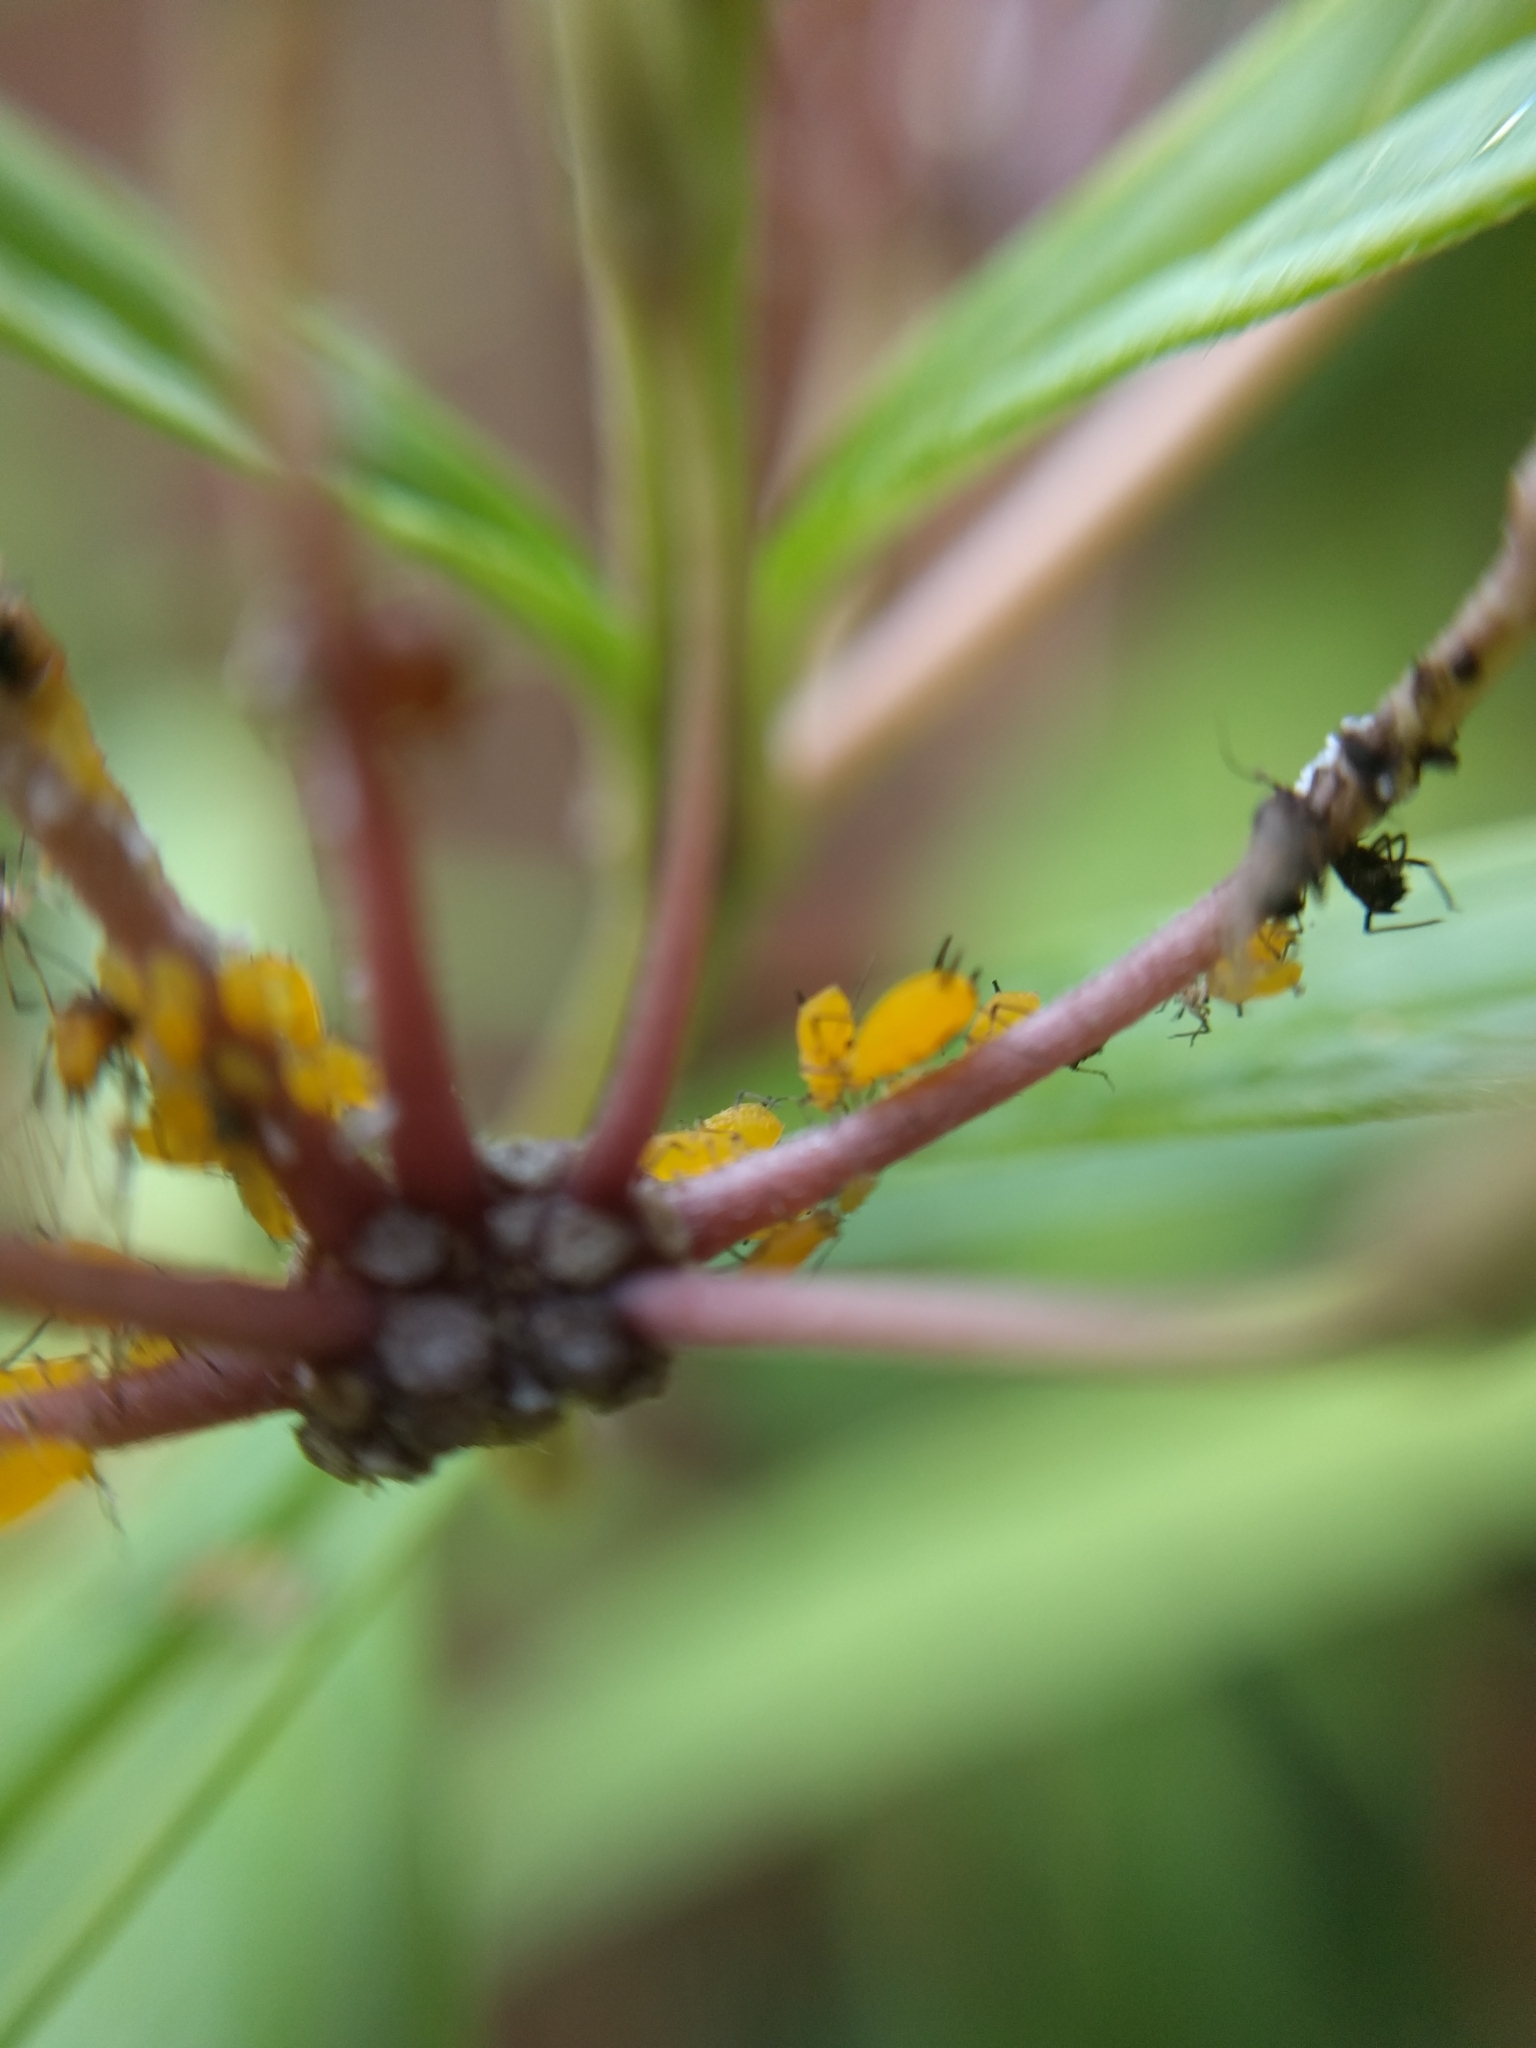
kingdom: Animalia
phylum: Arthropoda
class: Insecta
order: Hemiptera
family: Aphididae
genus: Aphis
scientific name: Aphis nerii
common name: Oleander aphid
